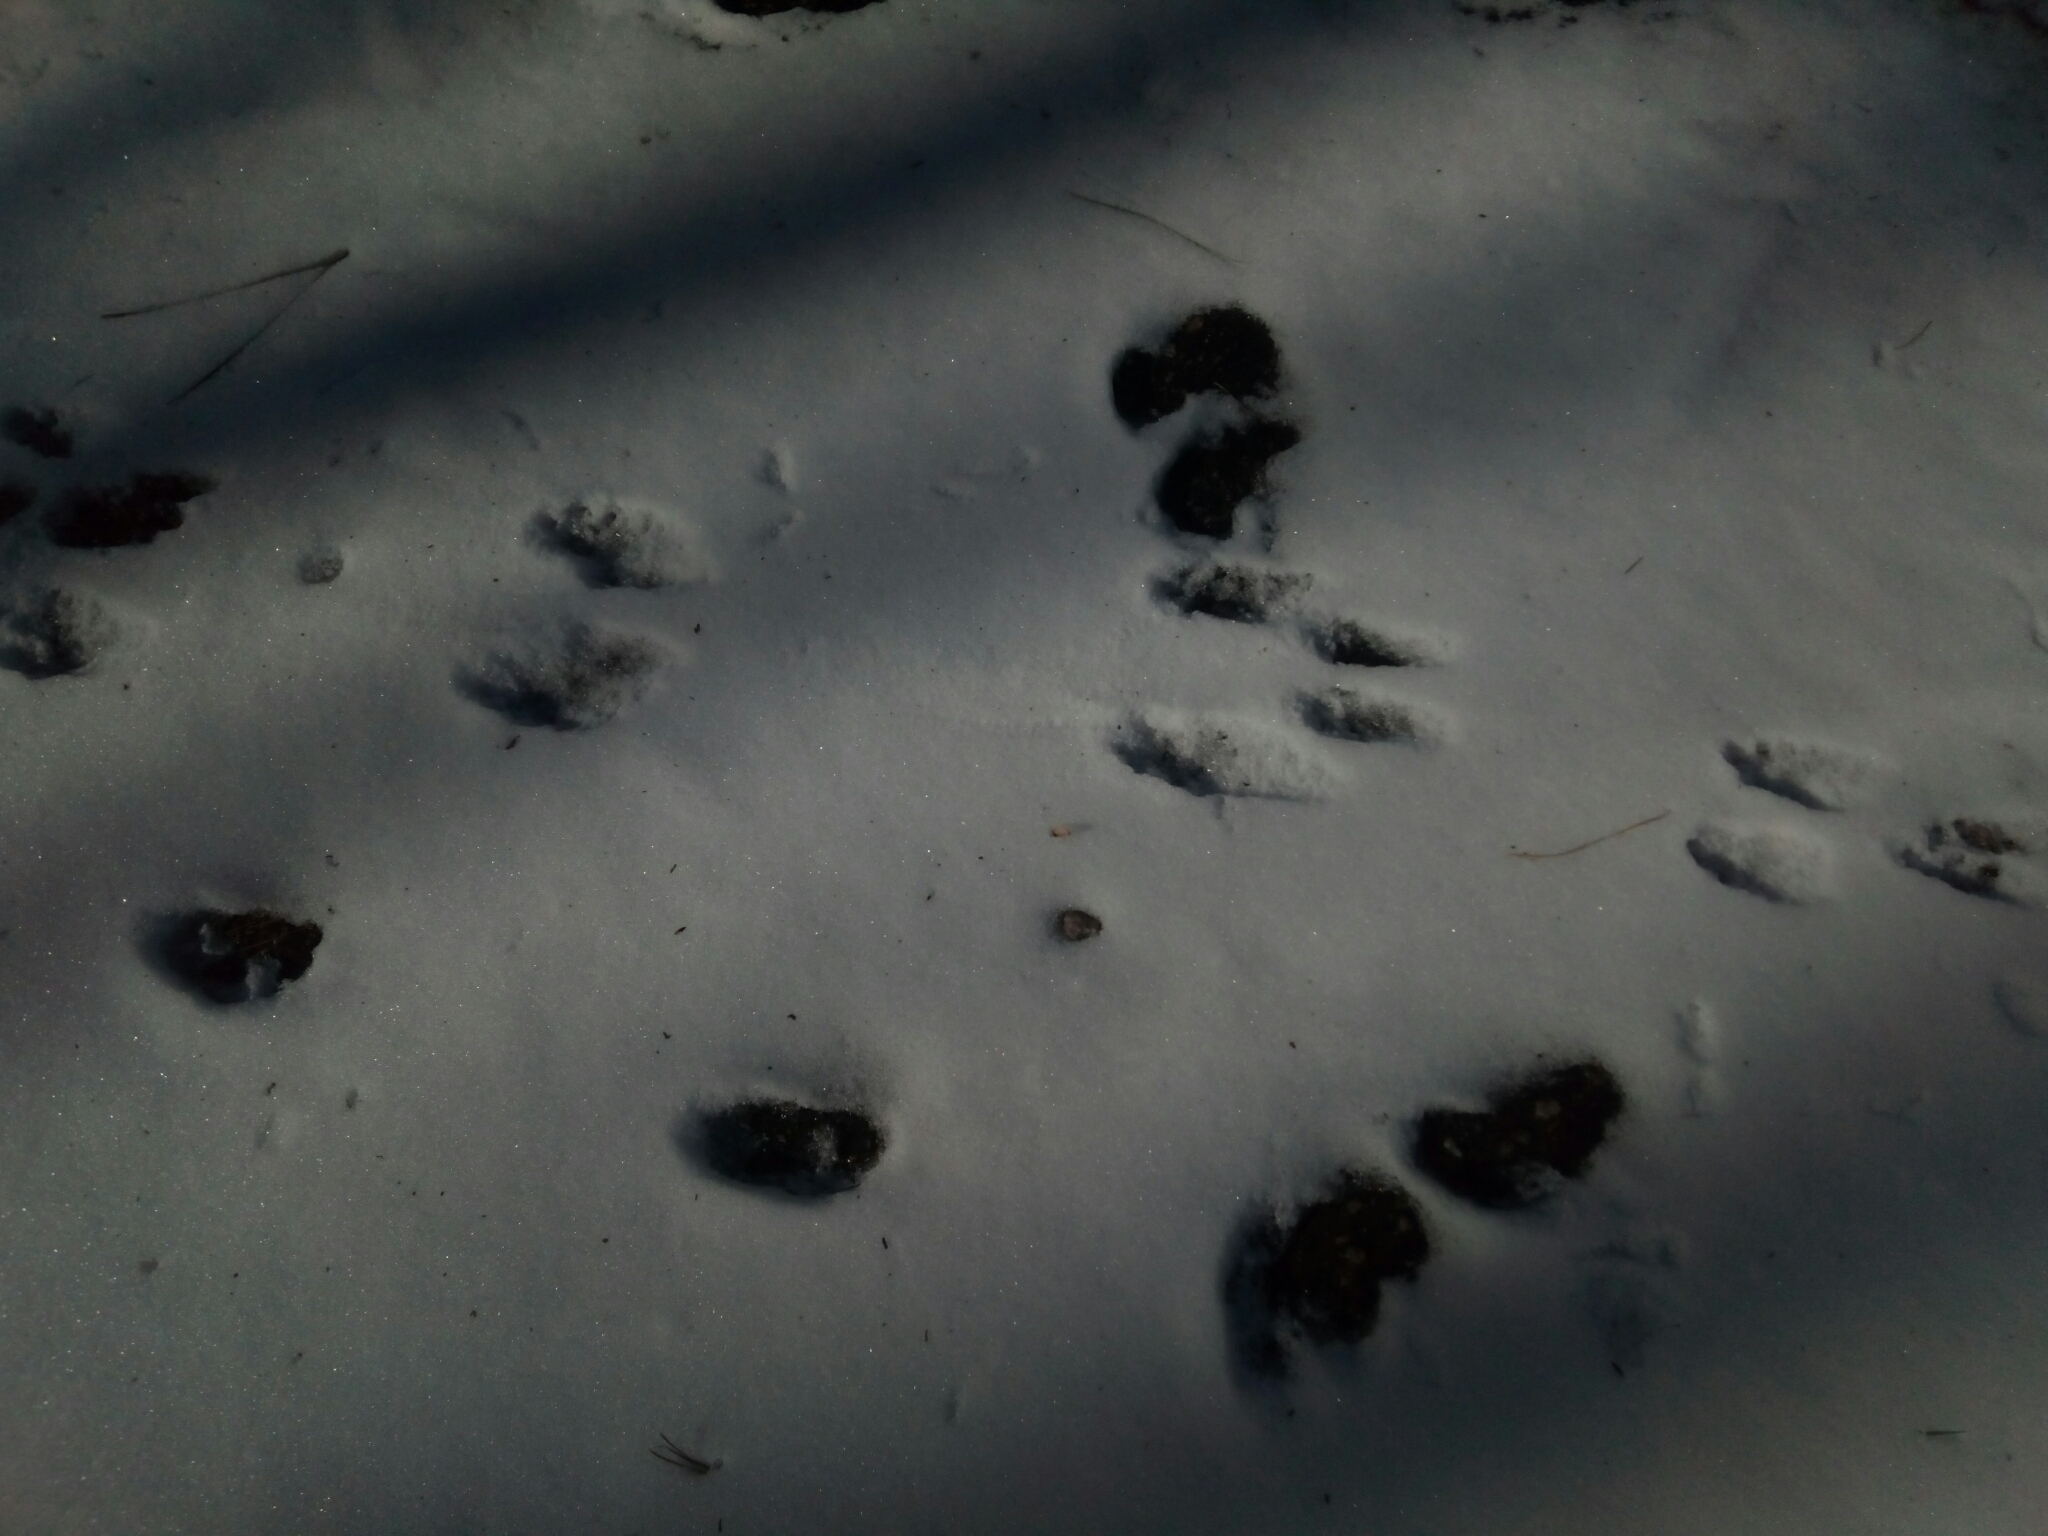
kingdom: Animalia
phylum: Chordata
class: Mammalia
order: Artiodactyla
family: Cervidae
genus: Odocoileus
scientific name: Odocoileus virginianus
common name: White-tailed deer
